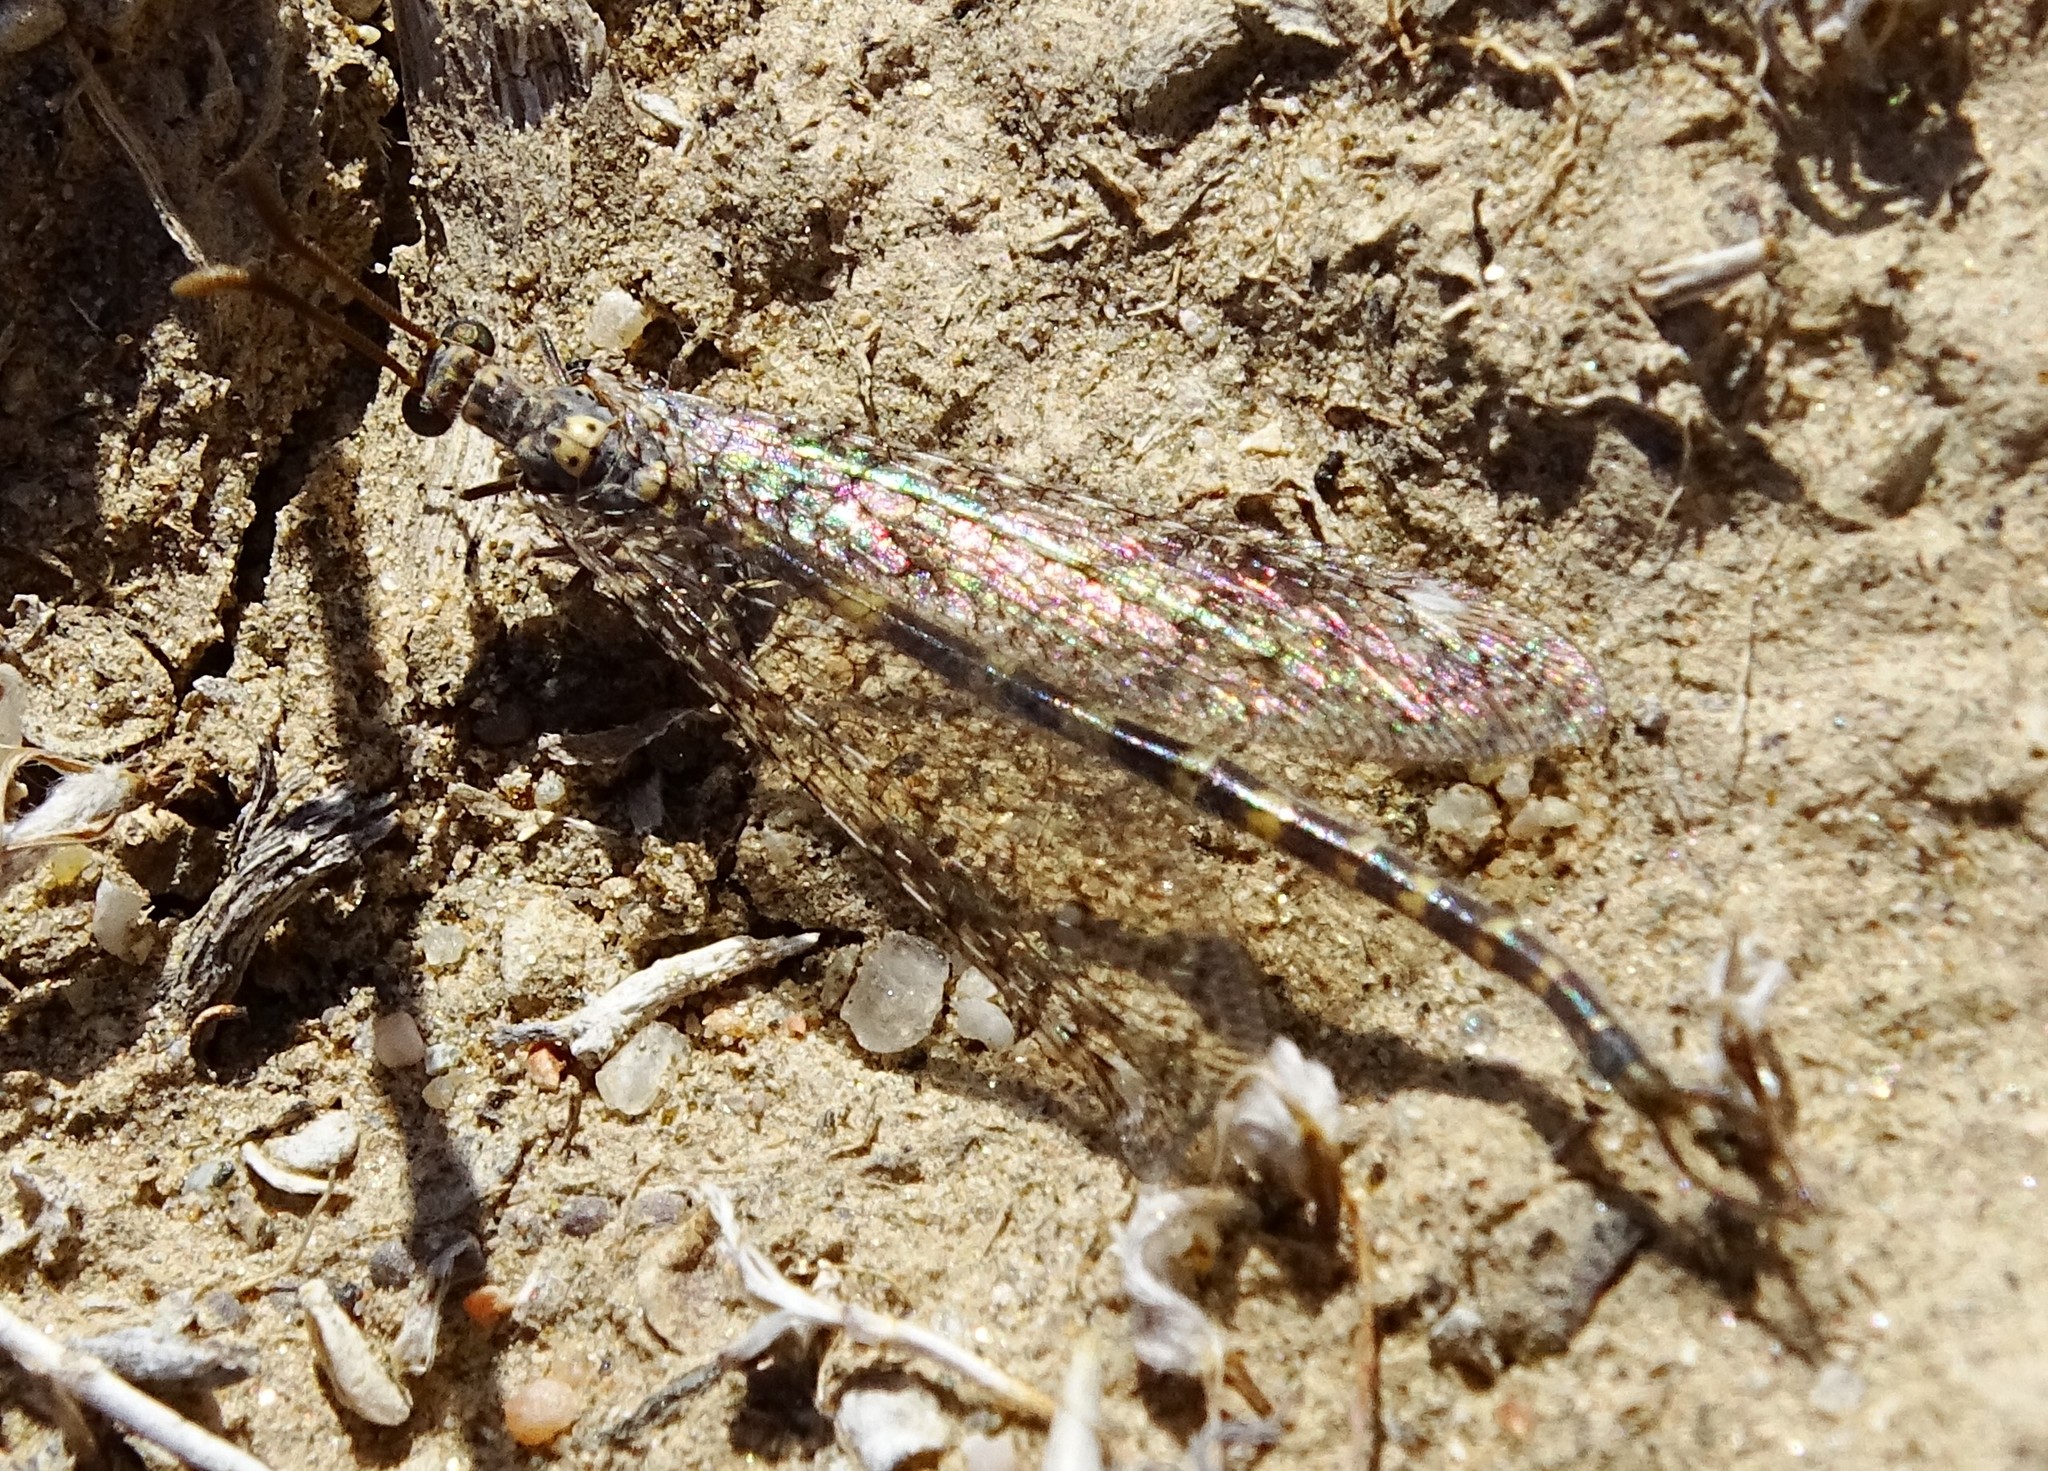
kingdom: Animalia
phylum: Arthropoda
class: Insecta
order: Neuroptera
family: Myrmeleontidae
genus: Brachynemurus
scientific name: Brachynemurus sackeni
